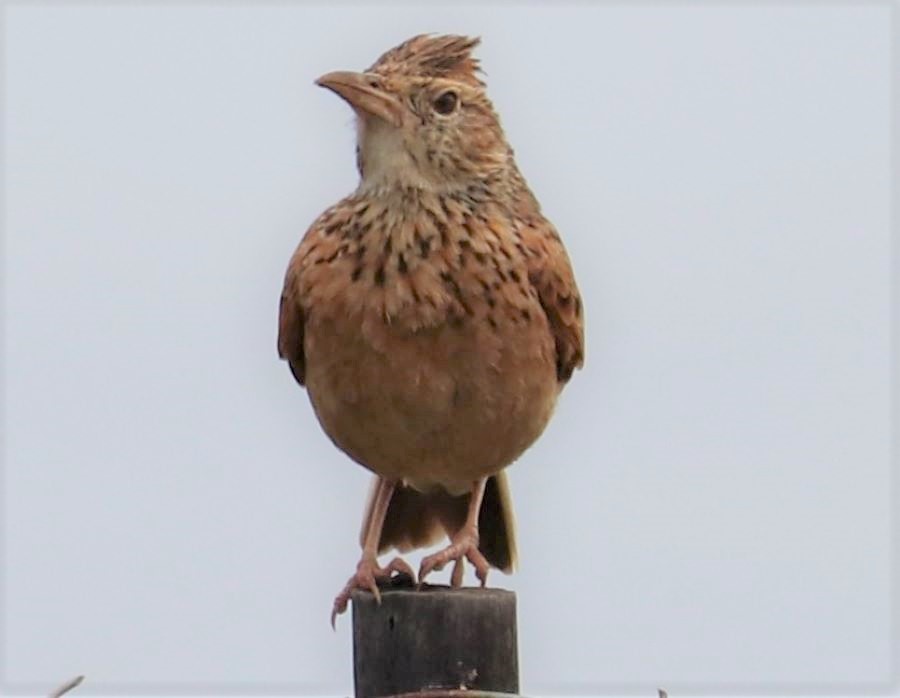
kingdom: Animalia
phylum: Chordata
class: Aves
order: Passeriformes
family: Alaudidae
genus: Mirafra
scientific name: Mirafra africana
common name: Rufous-naped lark
